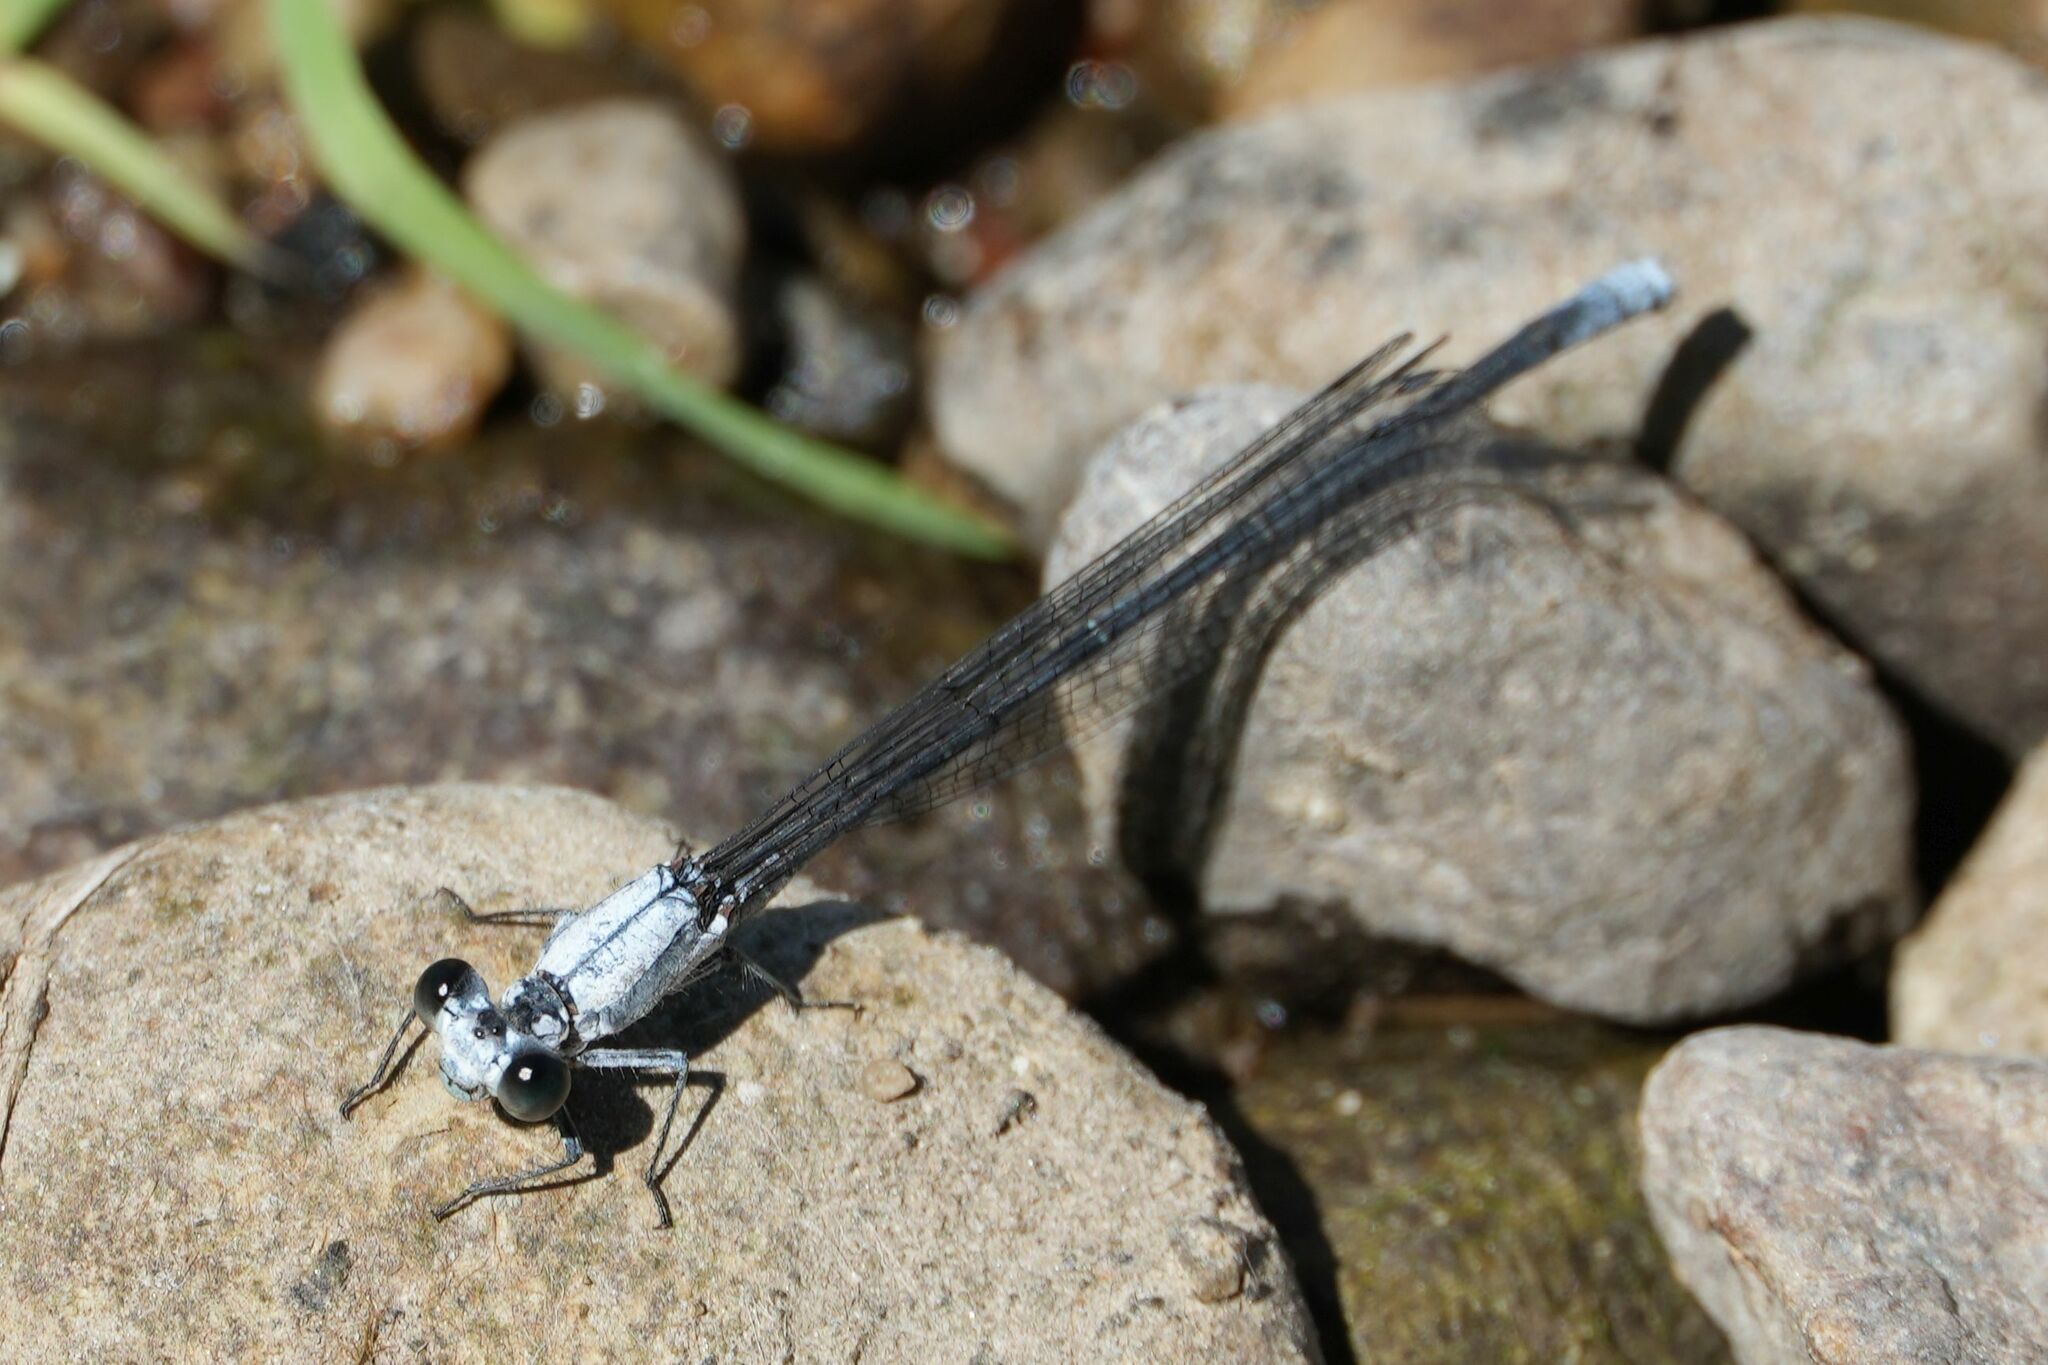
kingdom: Animalia
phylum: Arthropoda
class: Insecta
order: Odonata
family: Coenagrionidae
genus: Argia
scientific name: Argia moesta
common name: Powdered dancer
